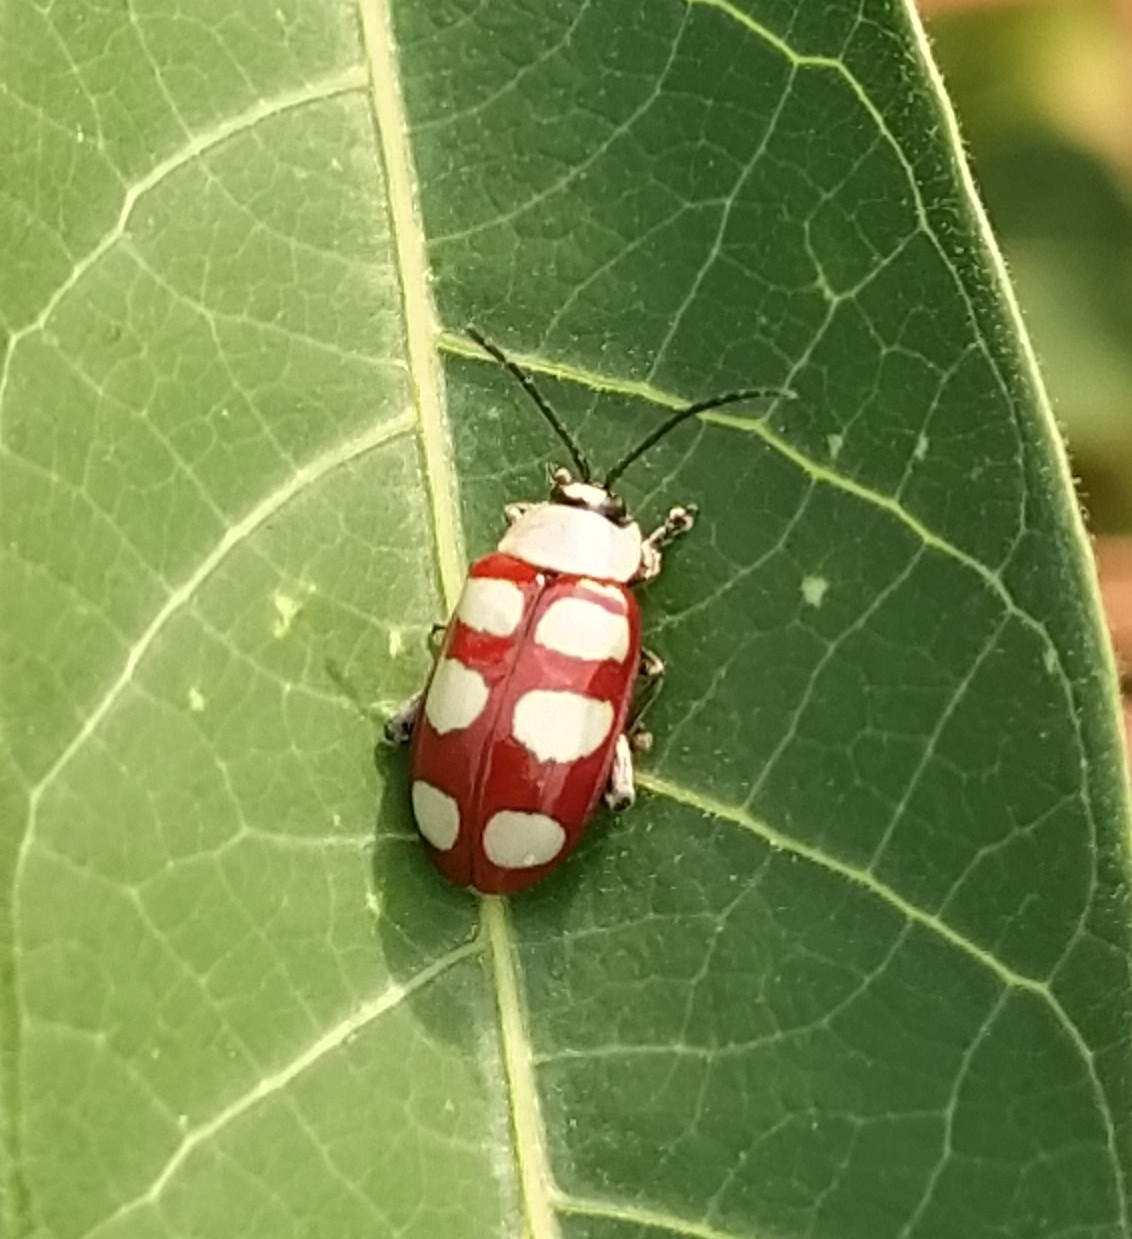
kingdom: Animalia
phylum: Arthropoda
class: Insecta
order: Coleoptera
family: Chrysomelidae
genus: Omophoita
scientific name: Omophoita personata
